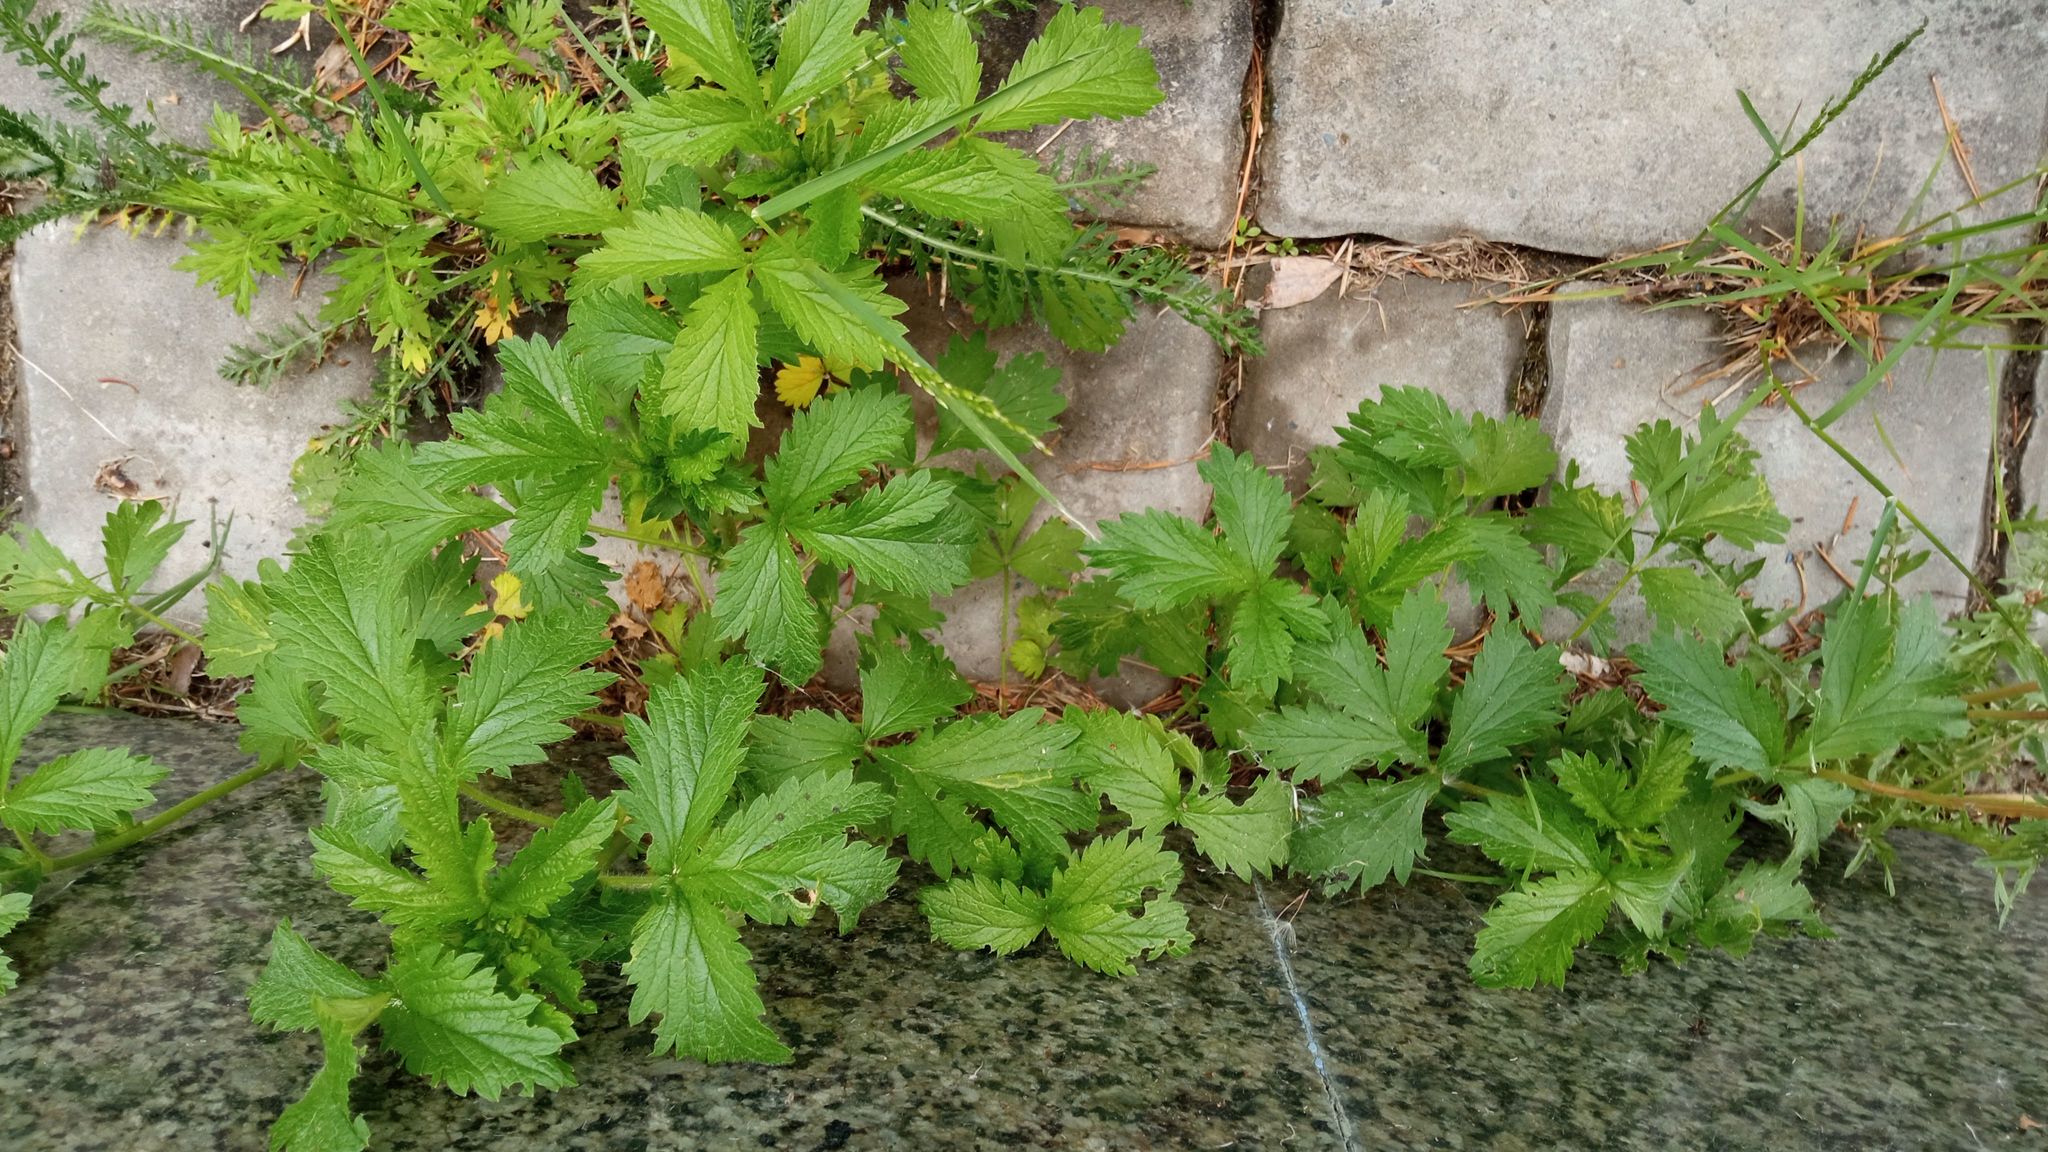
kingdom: Plantae
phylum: Tracheophyta
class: Magnoliopsida
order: Rosales
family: Rosaceae
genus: Potentilla
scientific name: Potentilla norvegica
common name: Ternate-leaved cinquefoil
